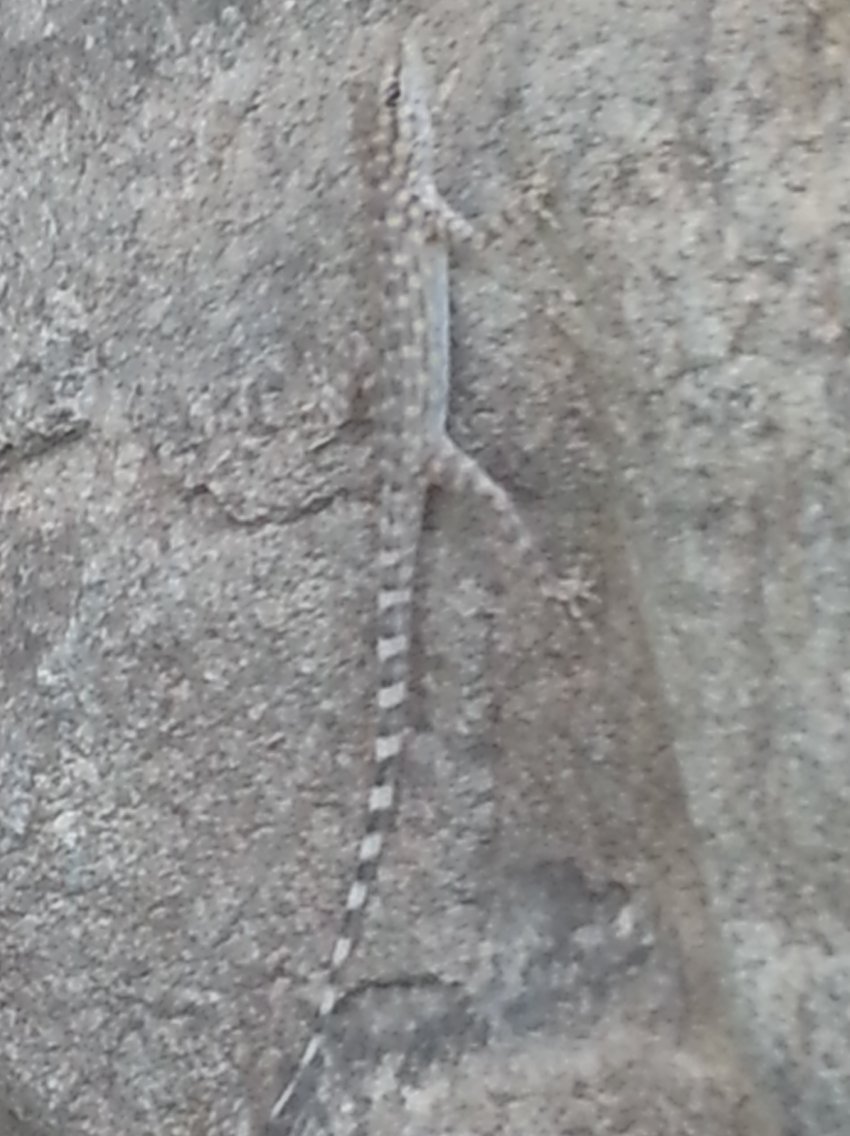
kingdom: Animalia
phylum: Chordata
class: Squamata
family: Sphaerodactylidae
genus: Pristurus
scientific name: Pristurus celerrimus
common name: Bar-tailed semaphore gecko
